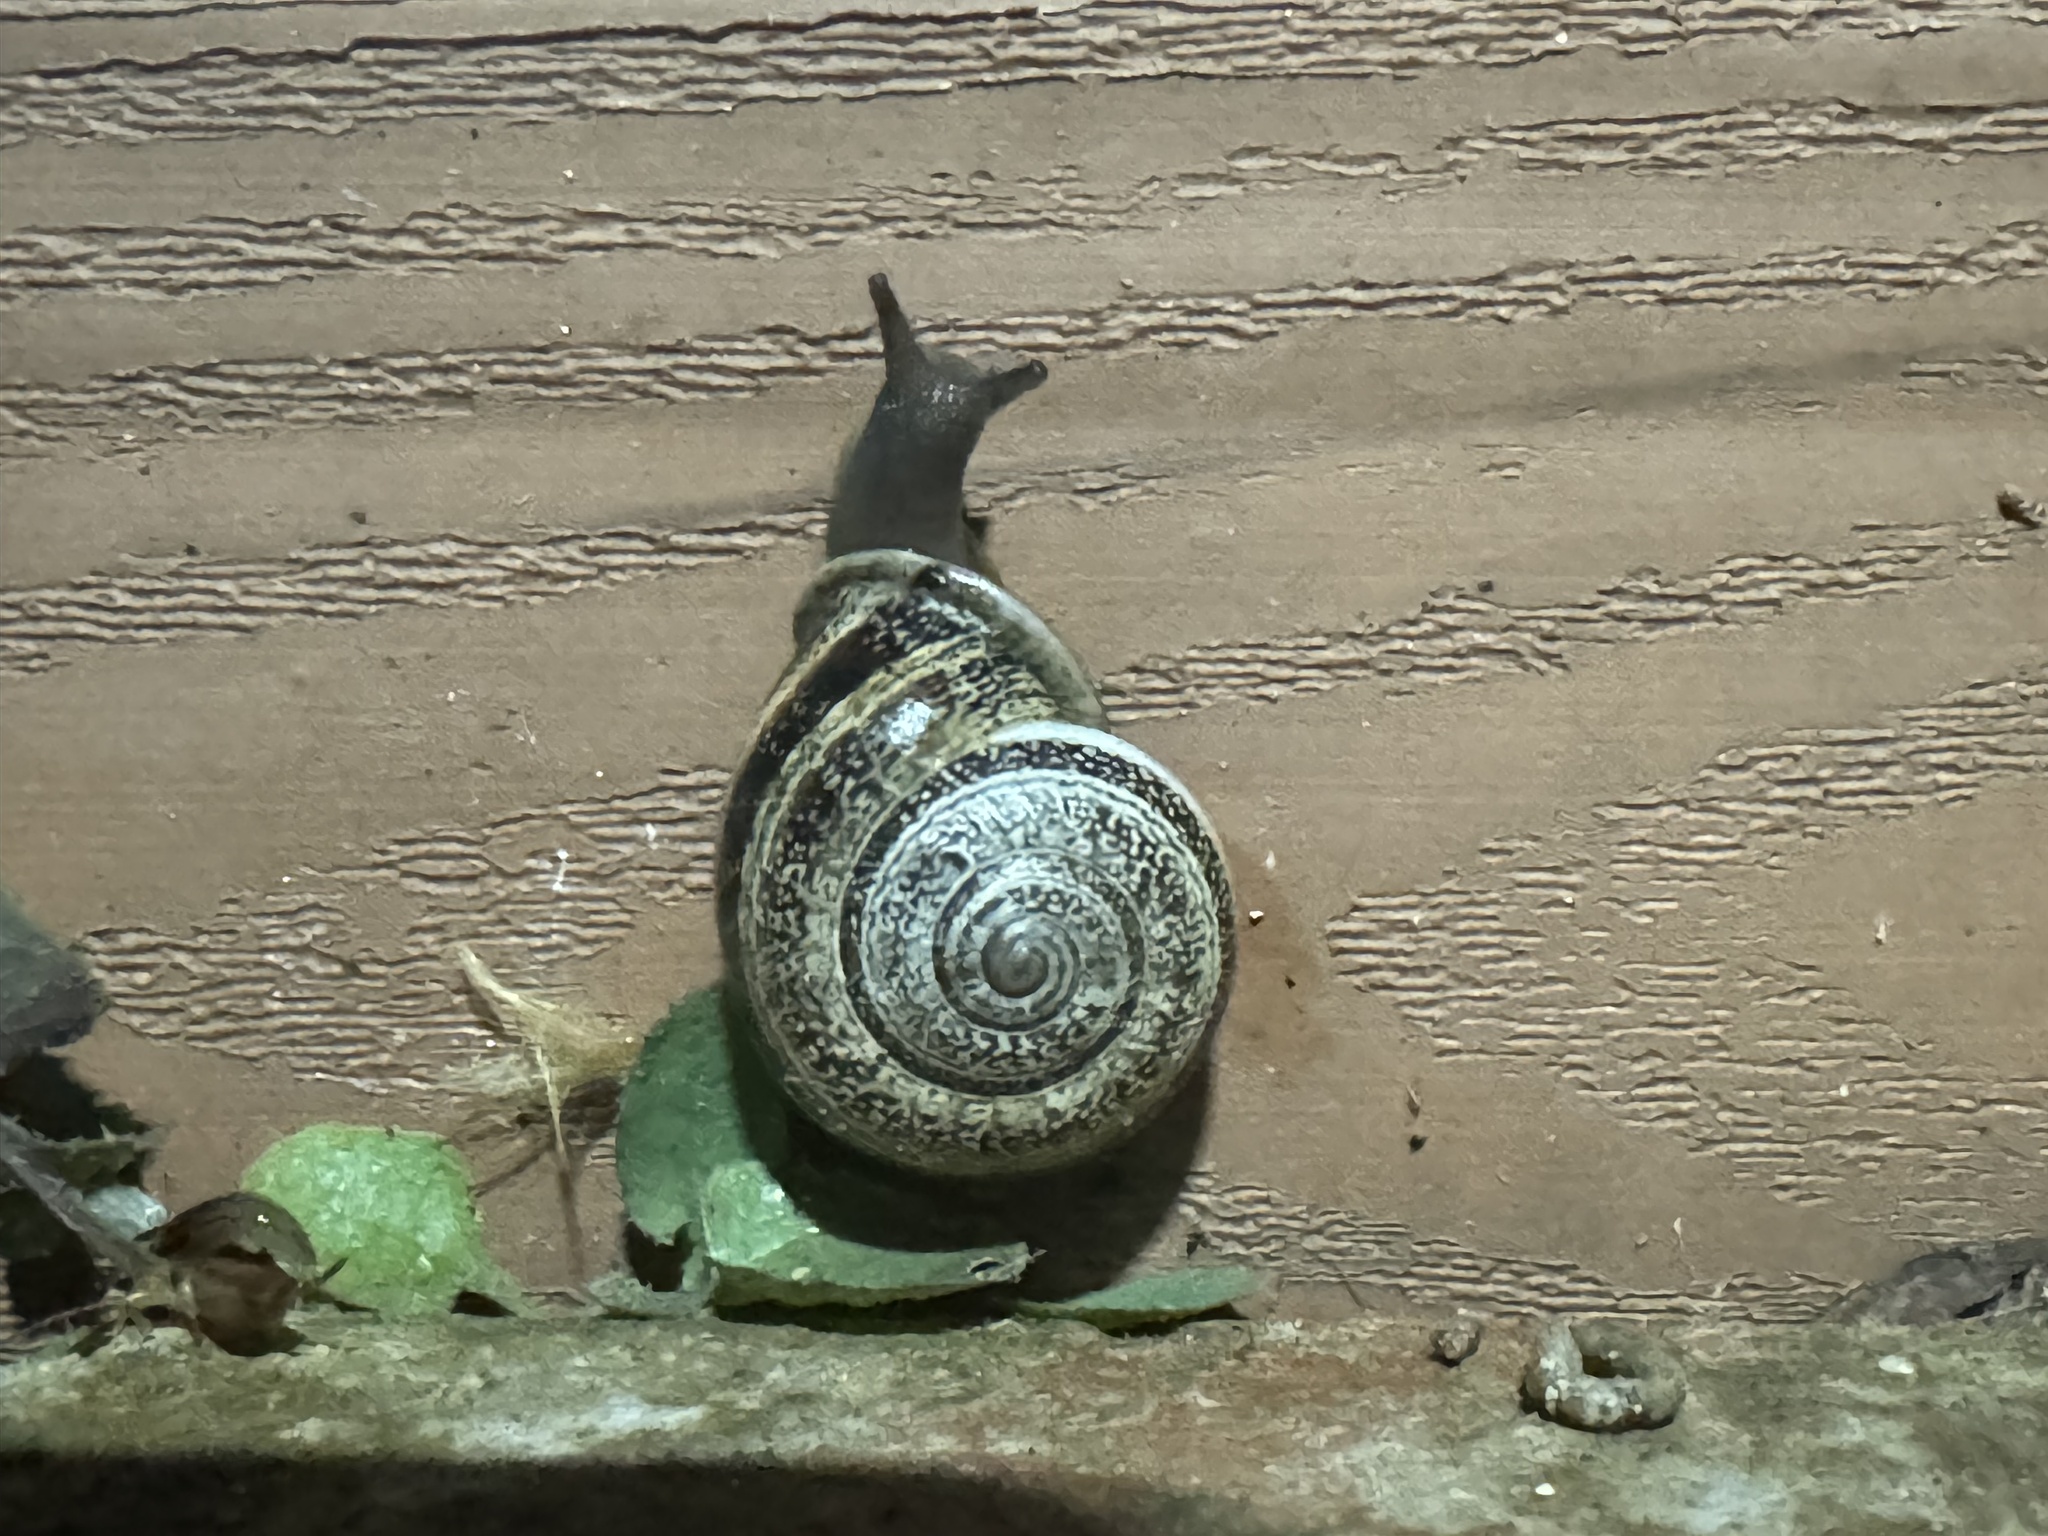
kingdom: Animalia
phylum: Mollusca
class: Gastropoda
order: Stylommatophora
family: Helicidae
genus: Otala
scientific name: Otala lactea
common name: Milk snail
